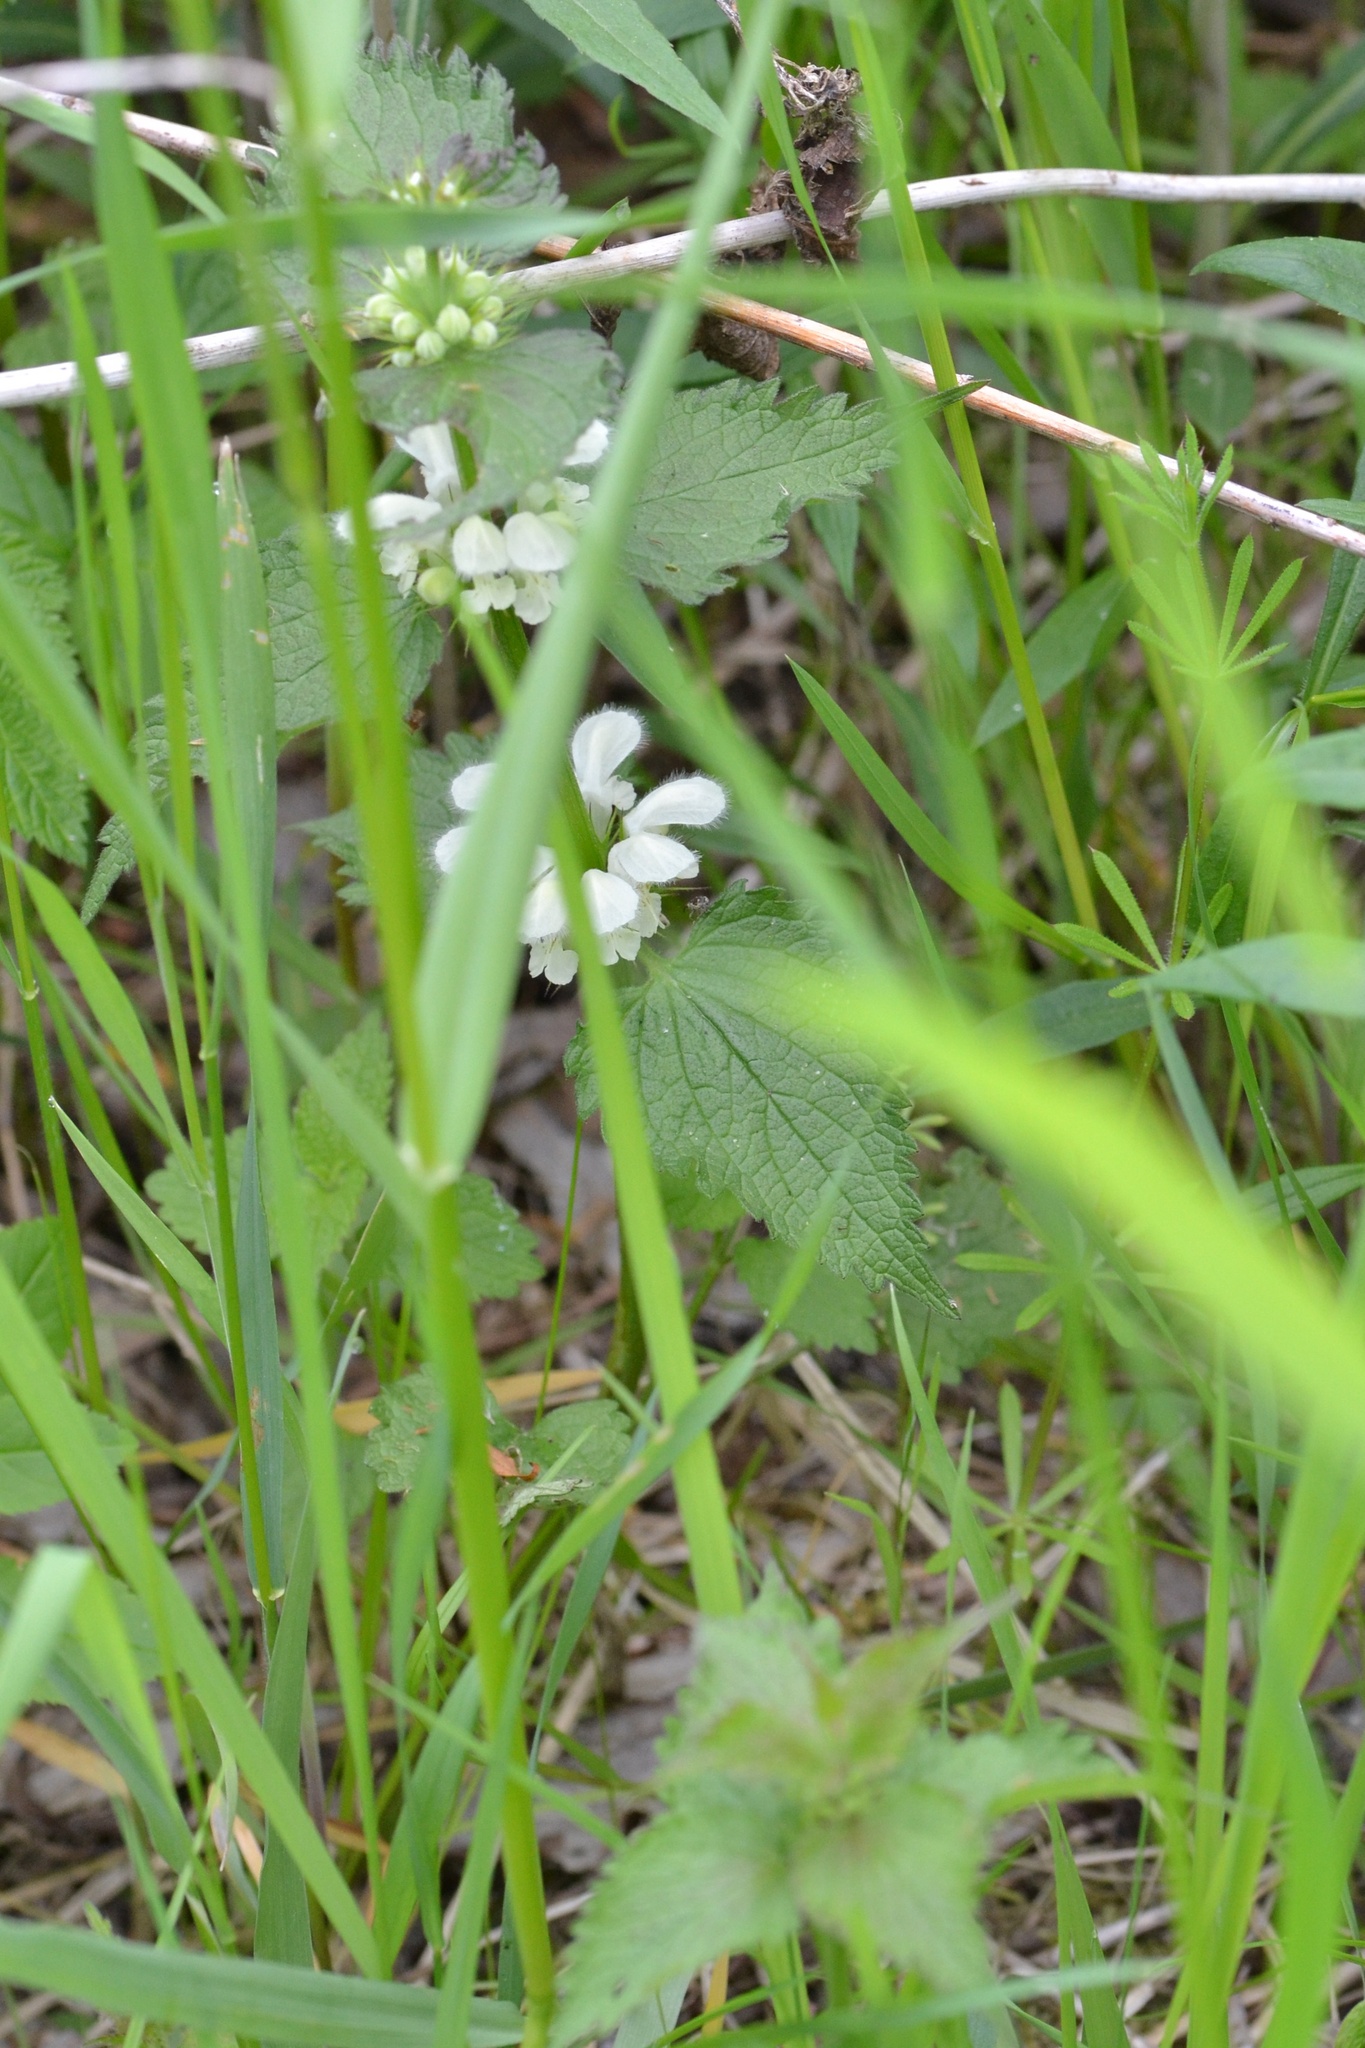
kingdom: Plantae
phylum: Tracheophyta
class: Magnoliopsida
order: Lamiales
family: Lamiaceae
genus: Lamium
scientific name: Lamium album
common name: White dead-nettle
